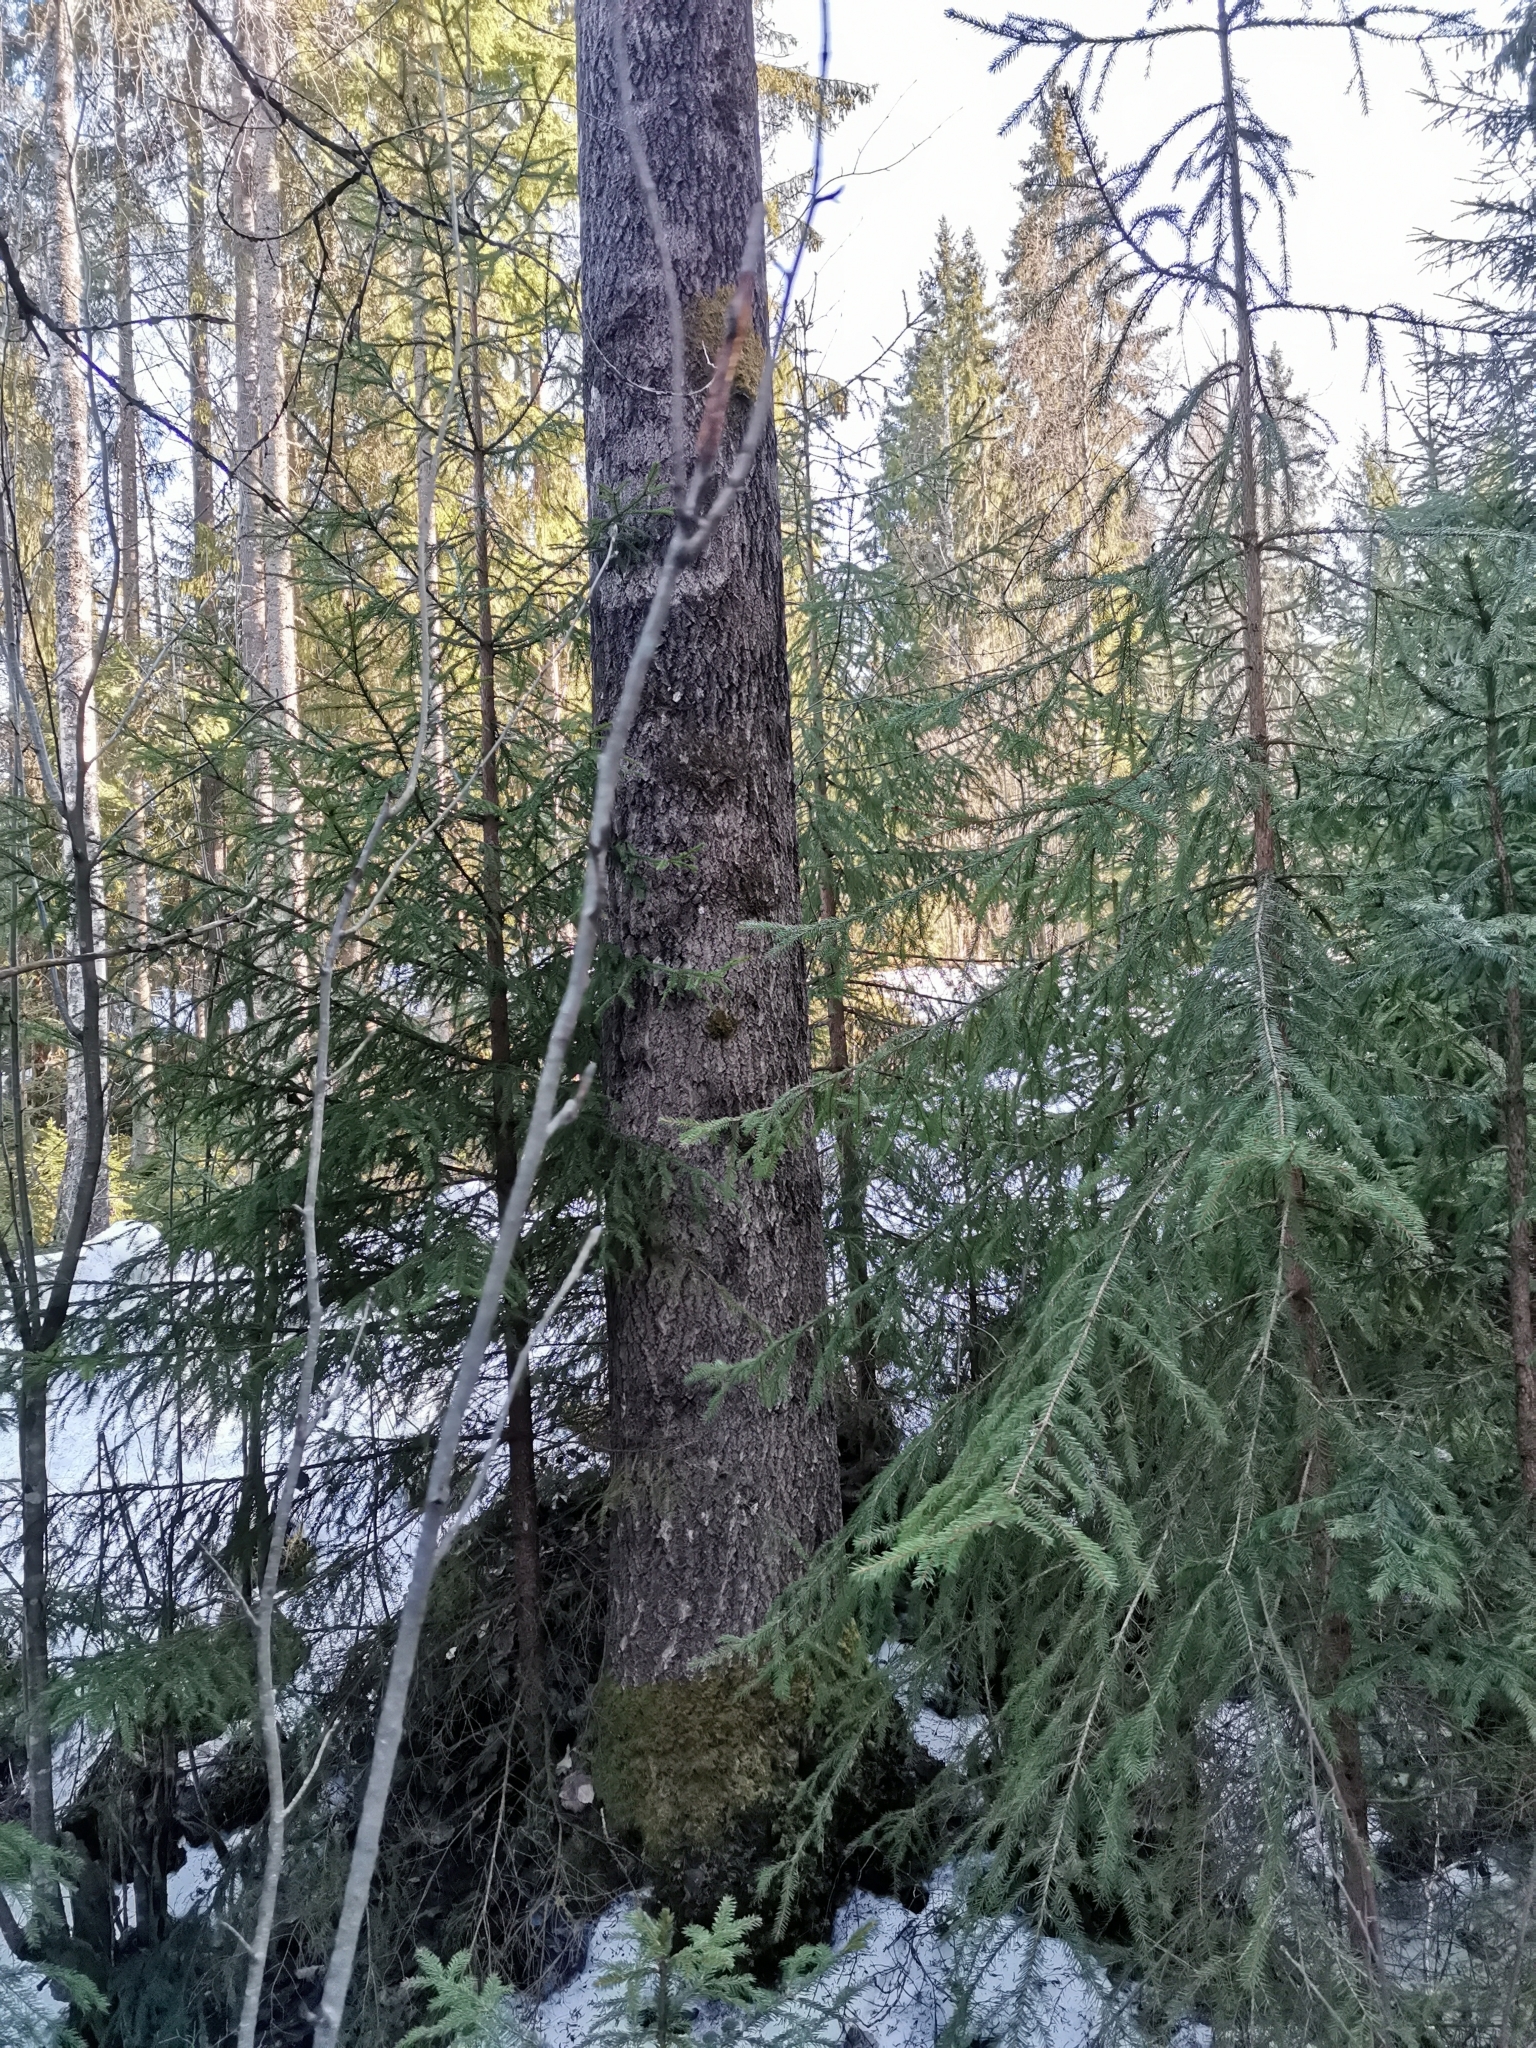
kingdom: Animalia
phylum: Chordata
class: Mammalia
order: Rodentia
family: Sciuridae
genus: Pteromys
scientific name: Pteromys volans
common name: Siberian flying squirrel
